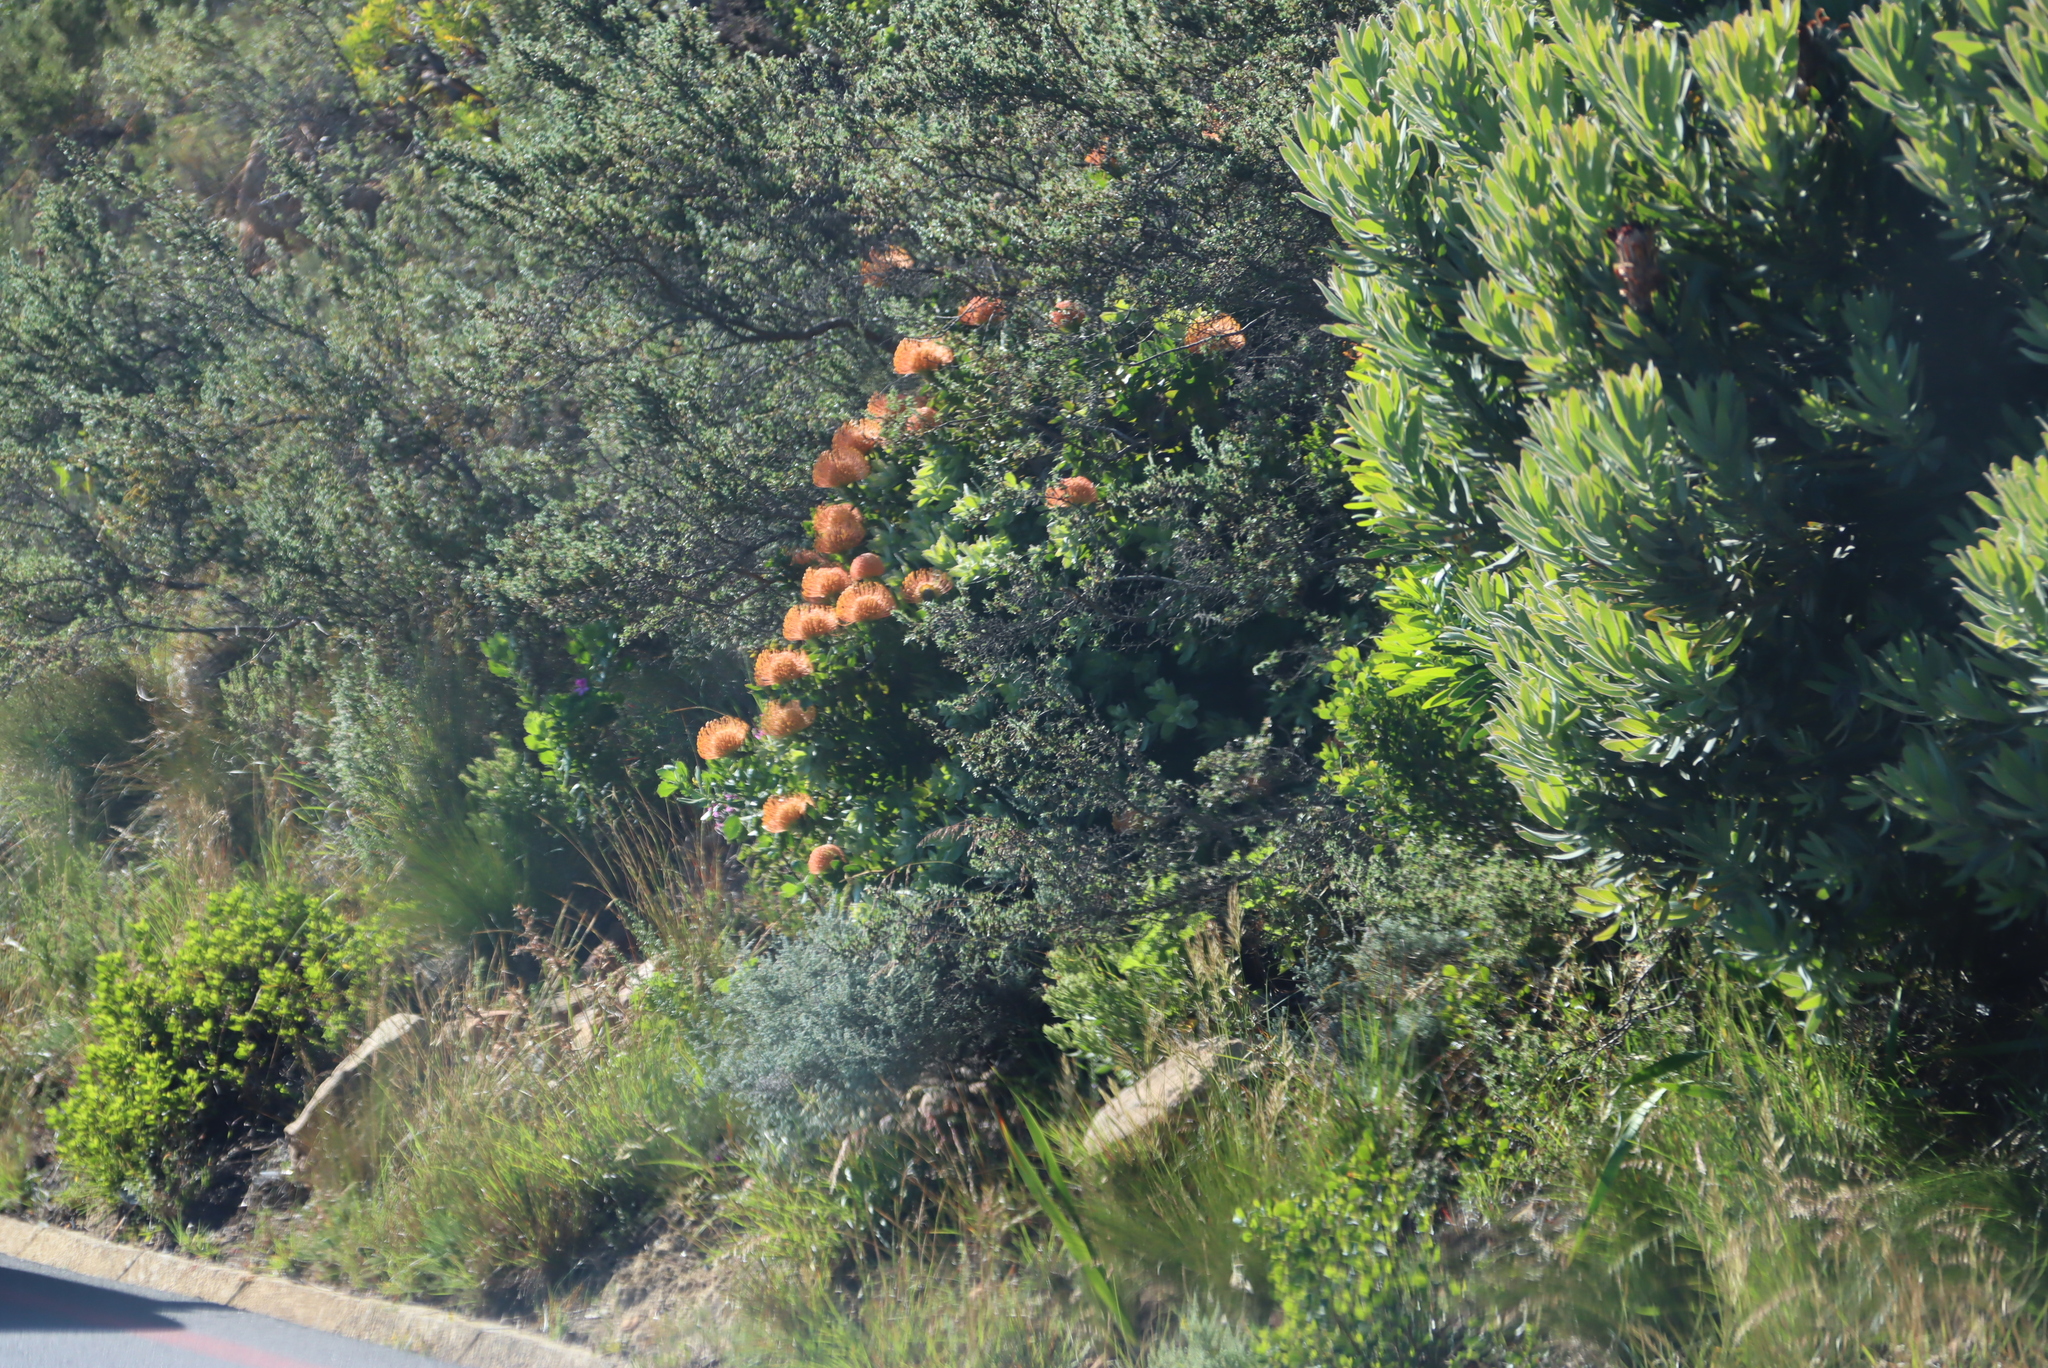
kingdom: Plantae
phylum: Tracheophyta
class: Magnoliopsida
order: Proteales
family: Proteaceae
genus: Leucospermum
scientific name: Leucospermum cordifolium
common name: Red pincushion-protea
